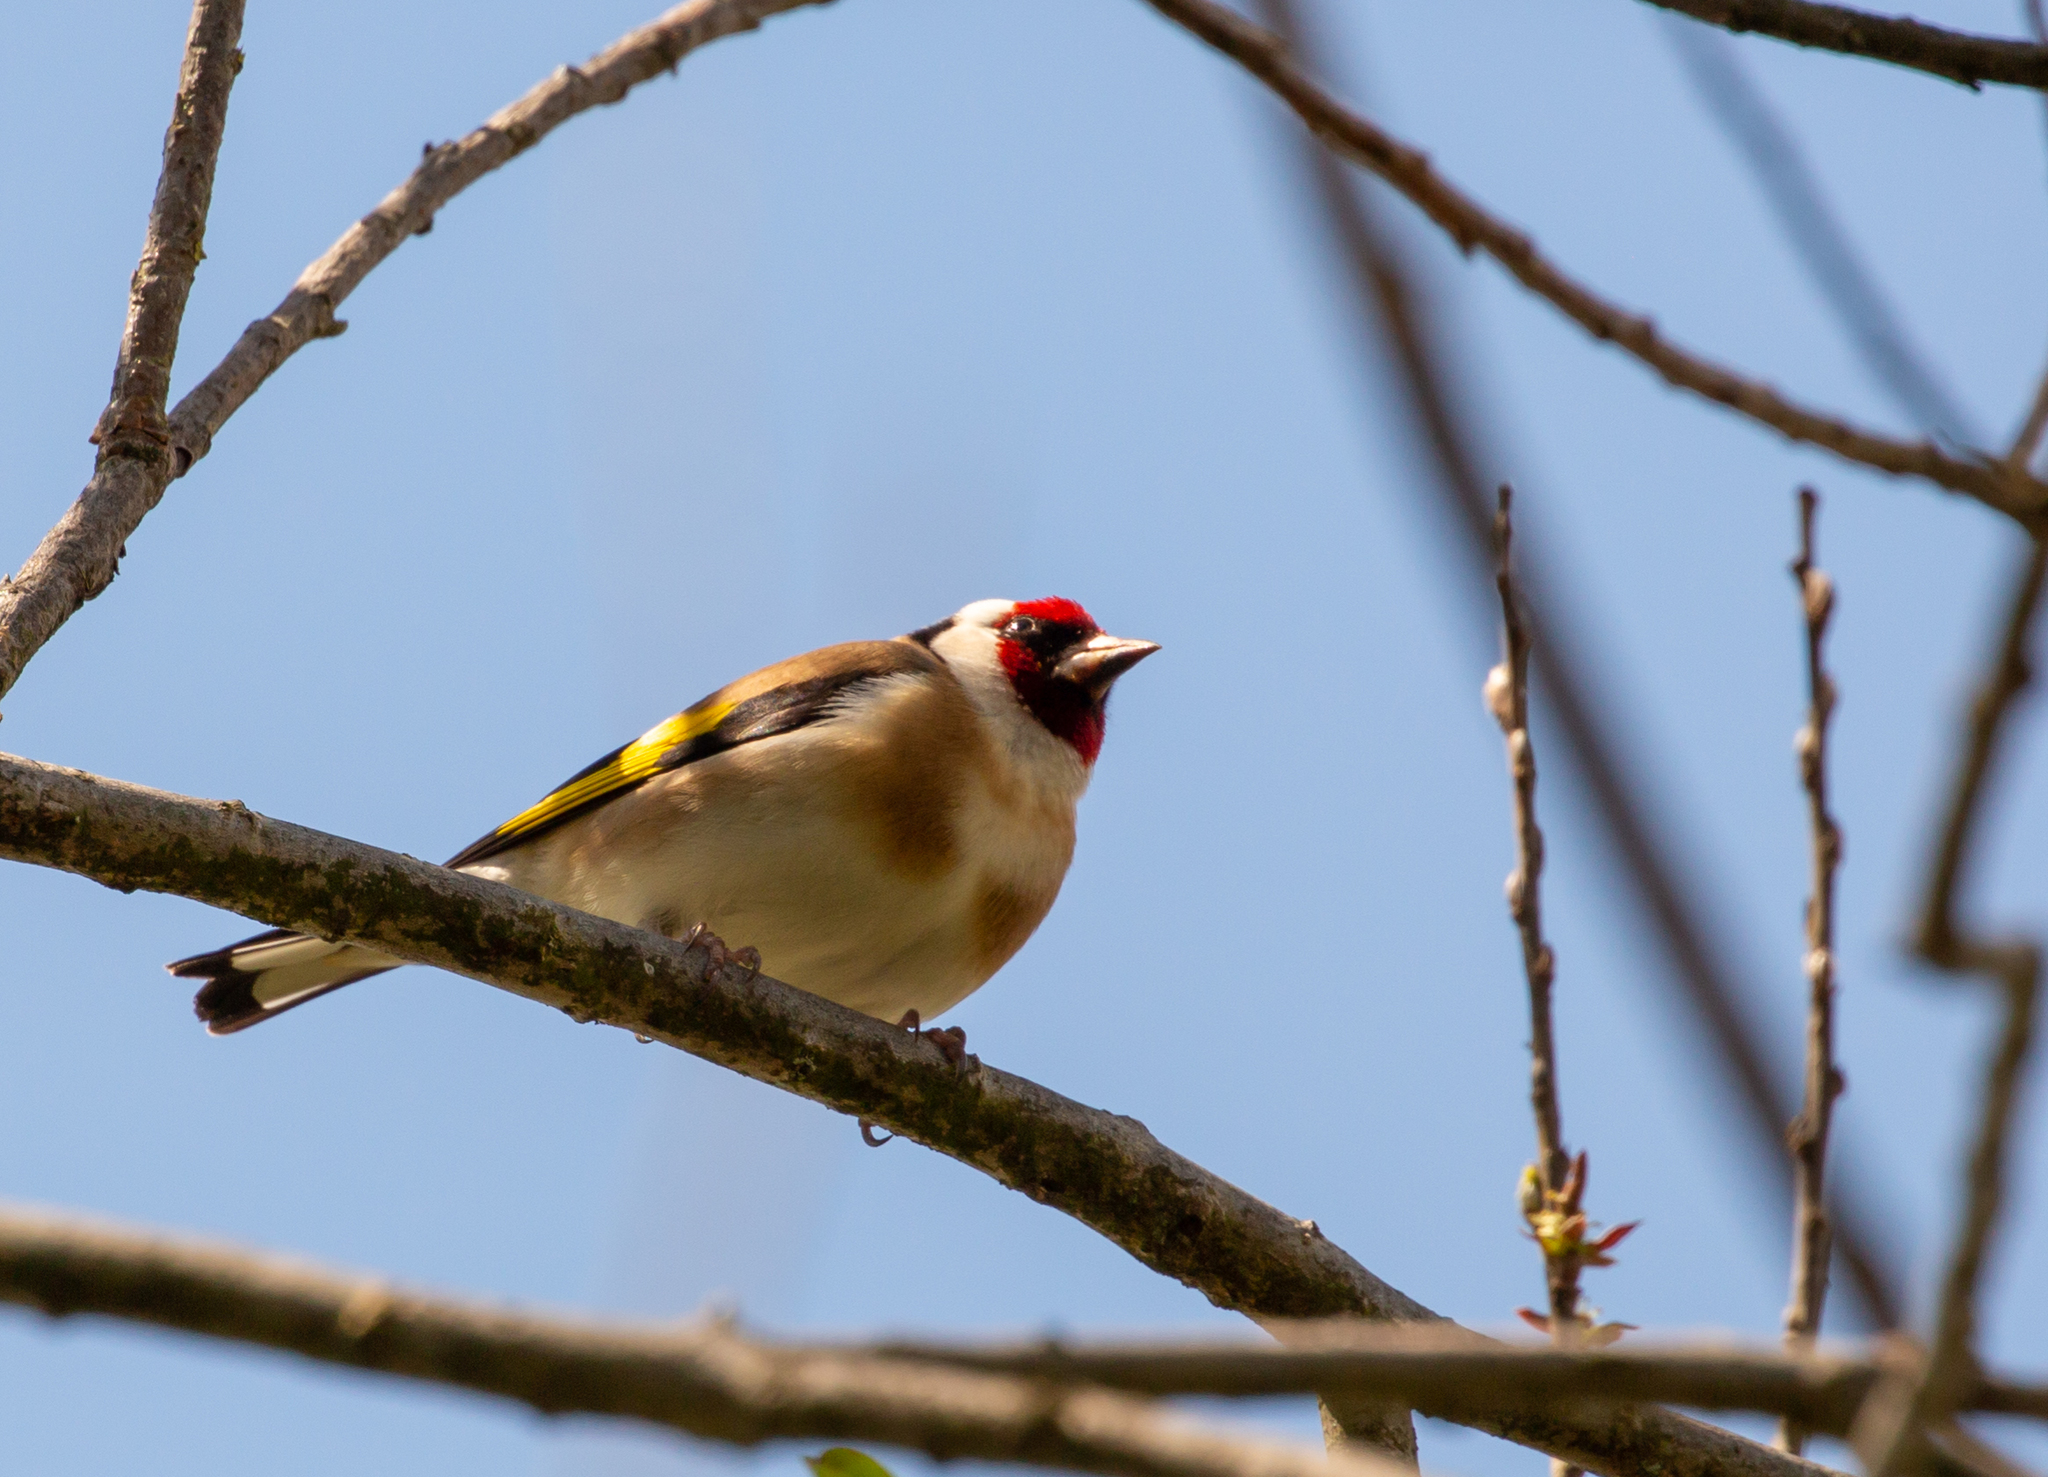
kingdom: Animalia
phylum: Chordata
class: Aves
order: Passeriformes
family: Fringillidae
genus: Carduelis
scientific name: Carduelis carduelis
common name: European goldfinch
